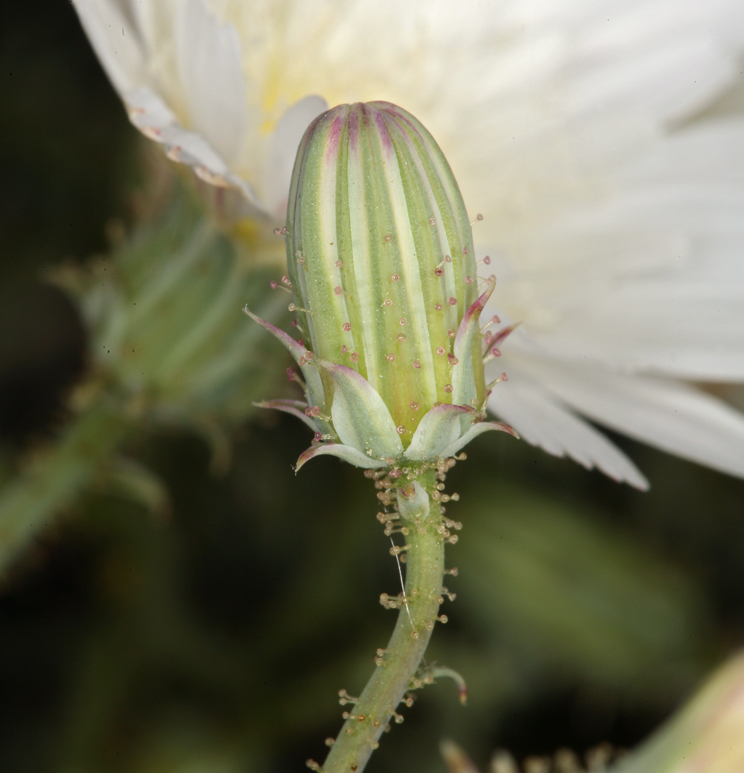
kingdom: Plantae
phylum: Tracheophyta
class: Magnoliopsida
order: Asterales
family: Asteraceae
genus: Calycoseris
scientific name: Calycoseris wrightii
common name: White tackstem
